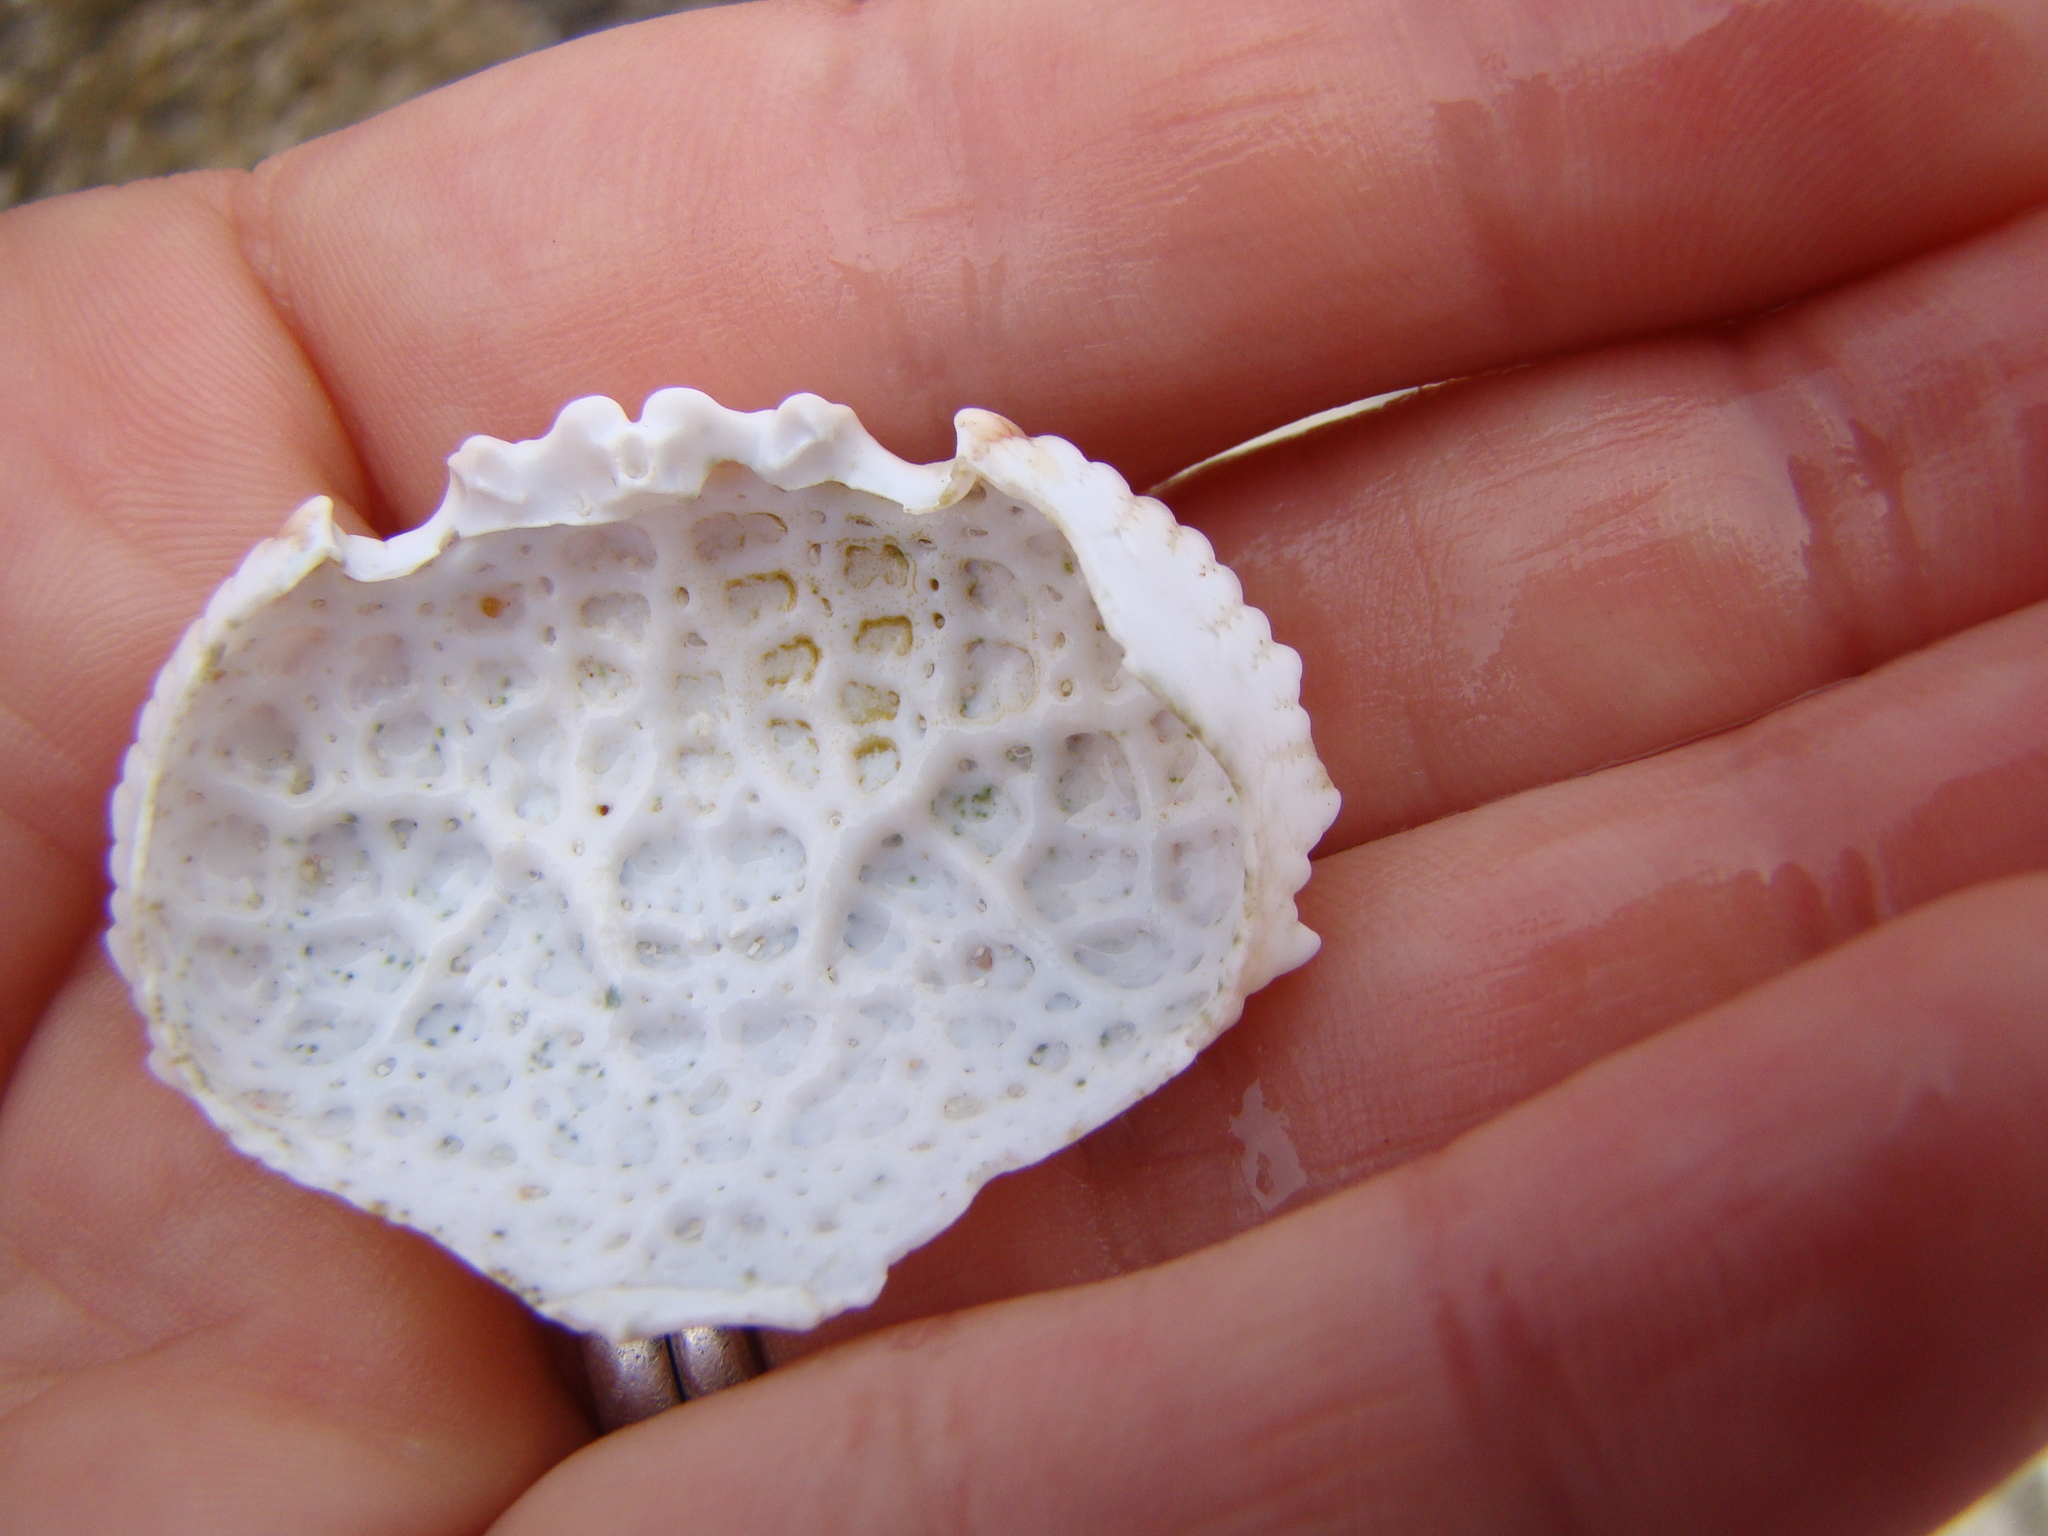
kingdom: Animalia
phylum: Arthropoda
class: Malacostraca
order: Decapoda
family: Dairidae
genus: Daira
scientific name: Daira perlata
